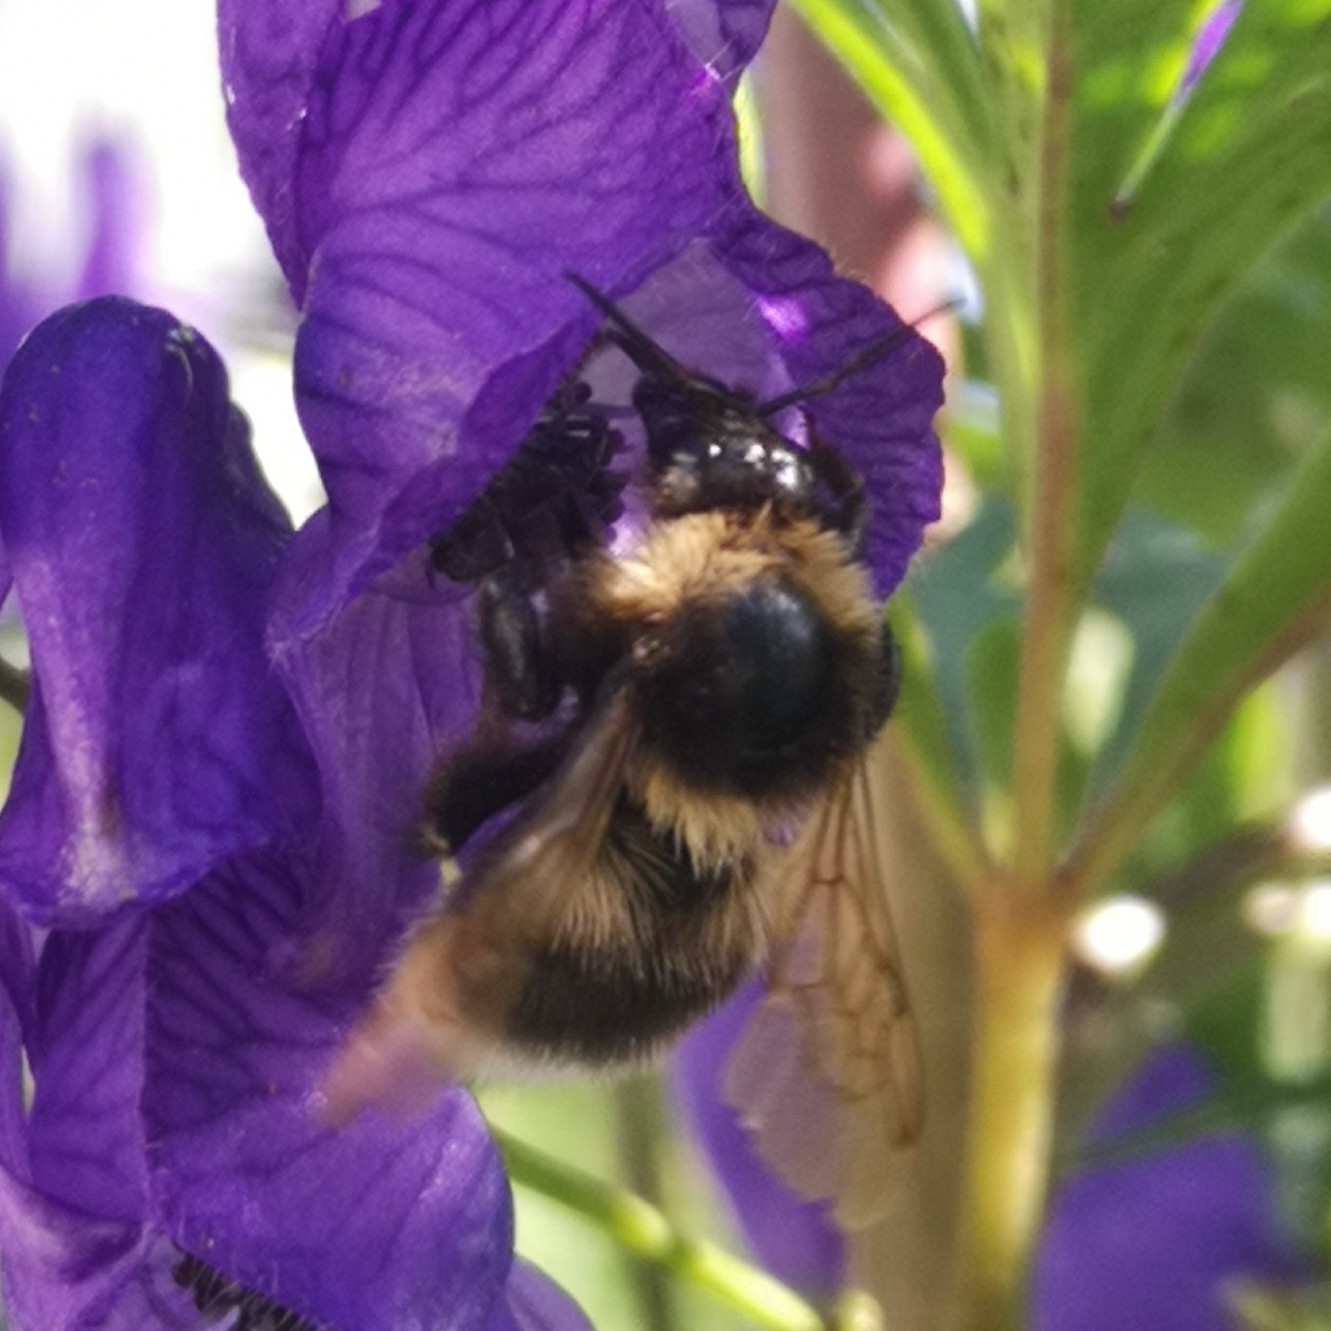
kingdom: Animalia
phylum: Arthropoda
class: Insecta
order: Hymenoptera
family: Apidae
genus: Bombus
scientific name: Bombus hortorum
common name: Garden bumblebee
